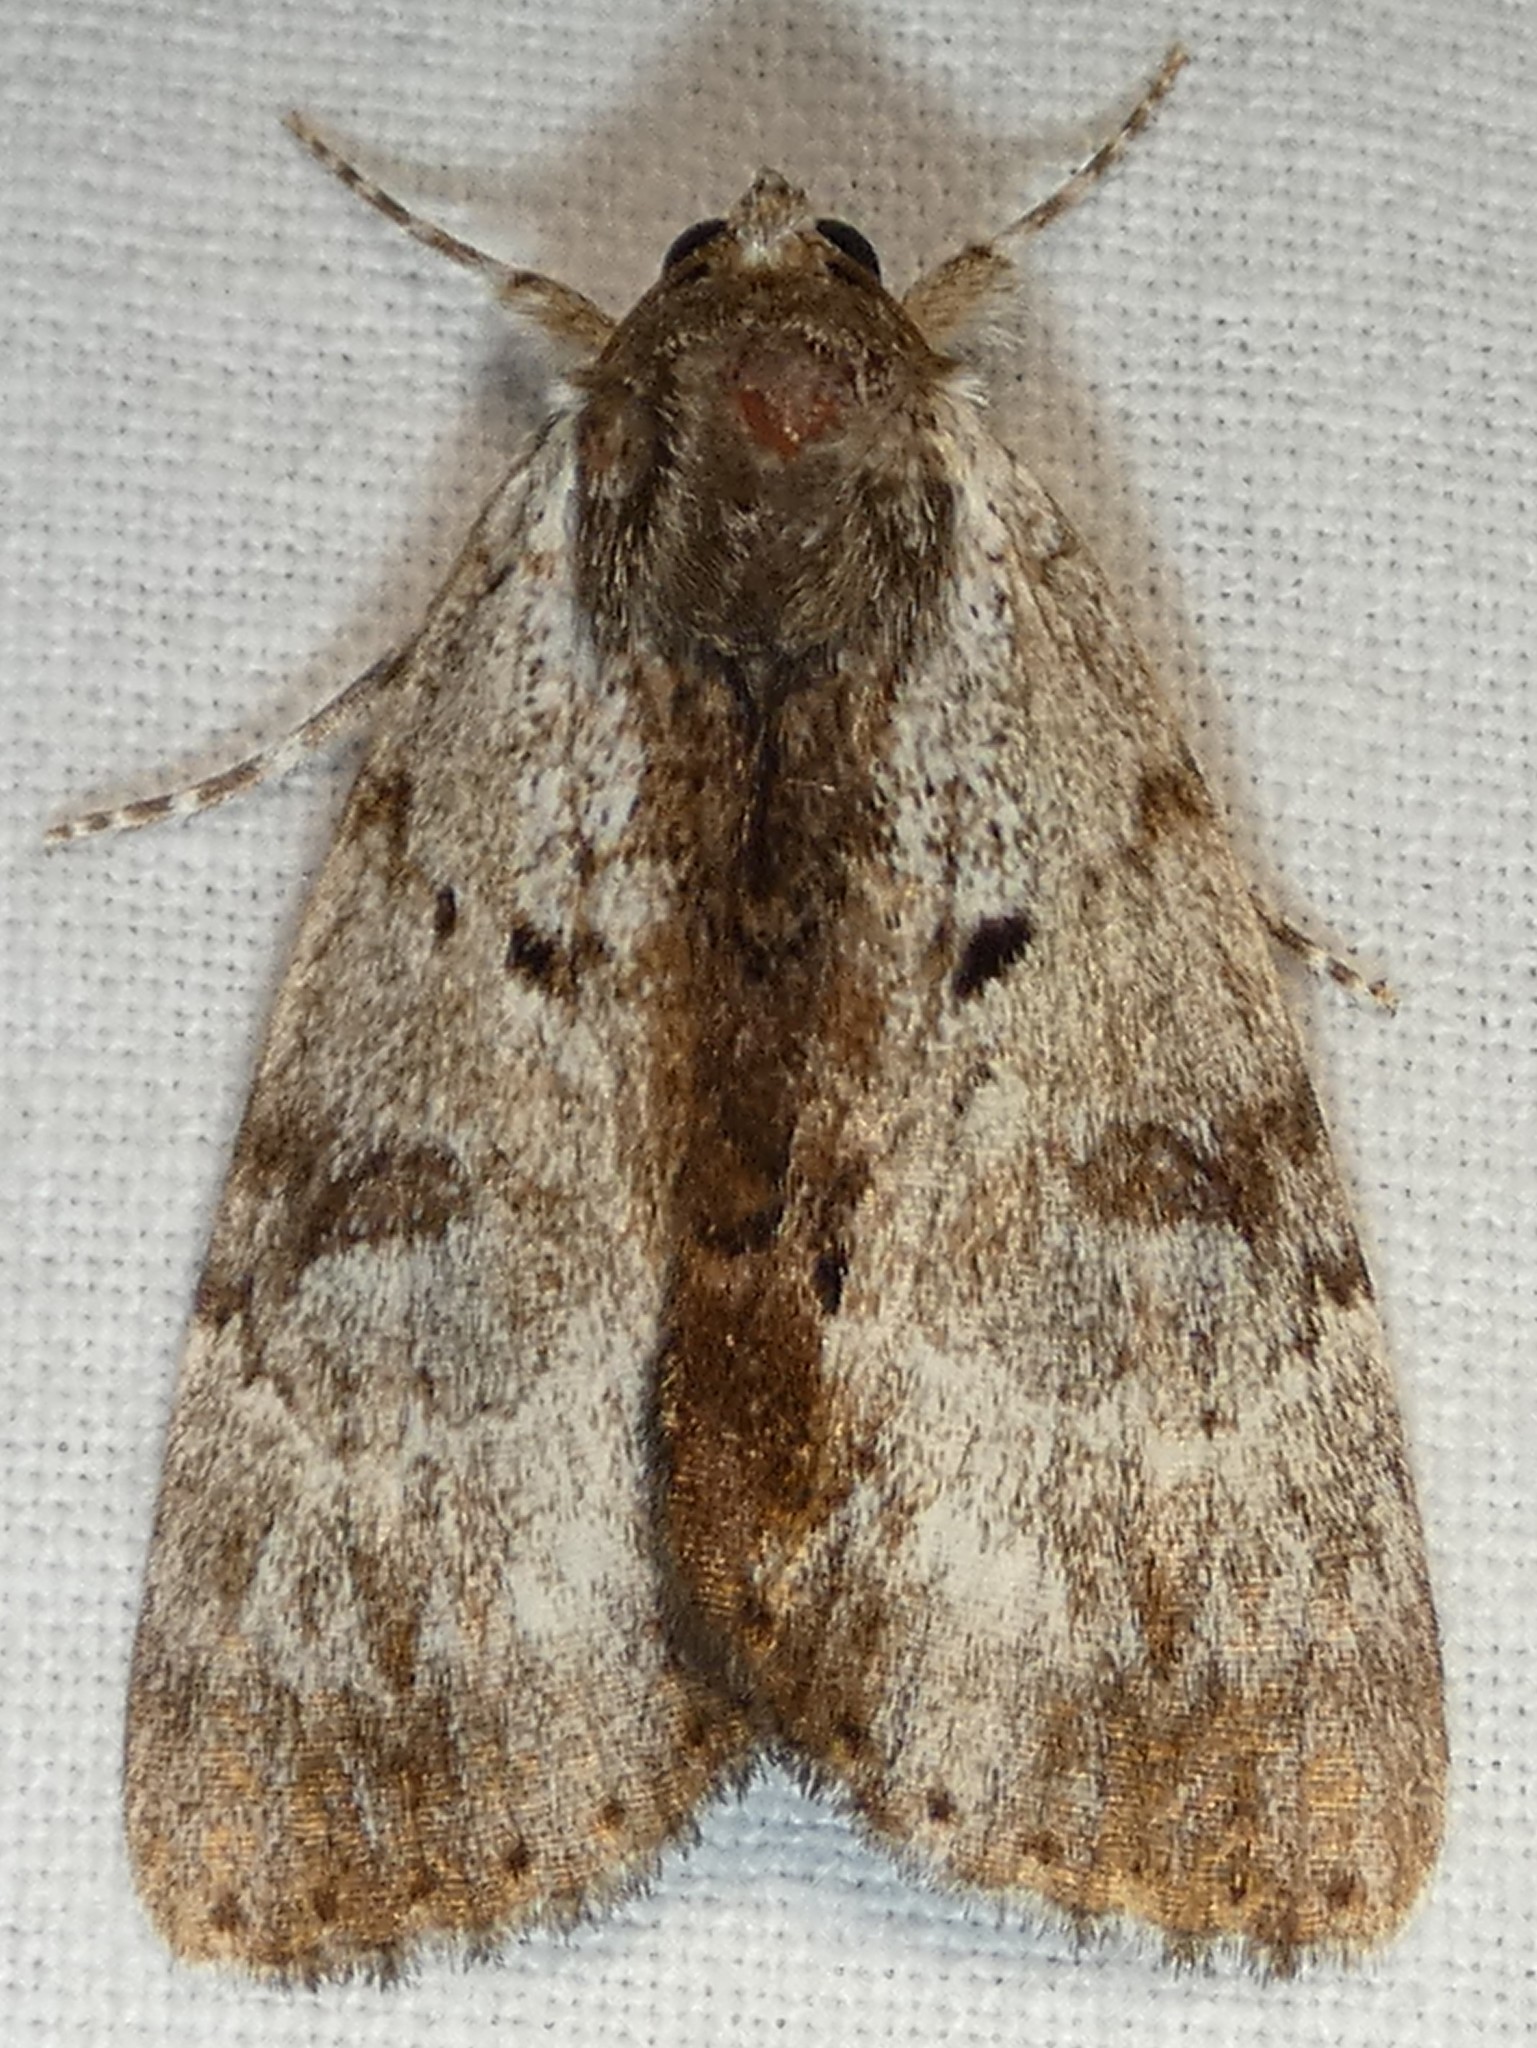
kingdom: Animalia
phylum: Arthropoda
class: Insecta
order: Lepidoptera
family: Erebidae
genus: Catocala
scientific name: Catocala andromedae
